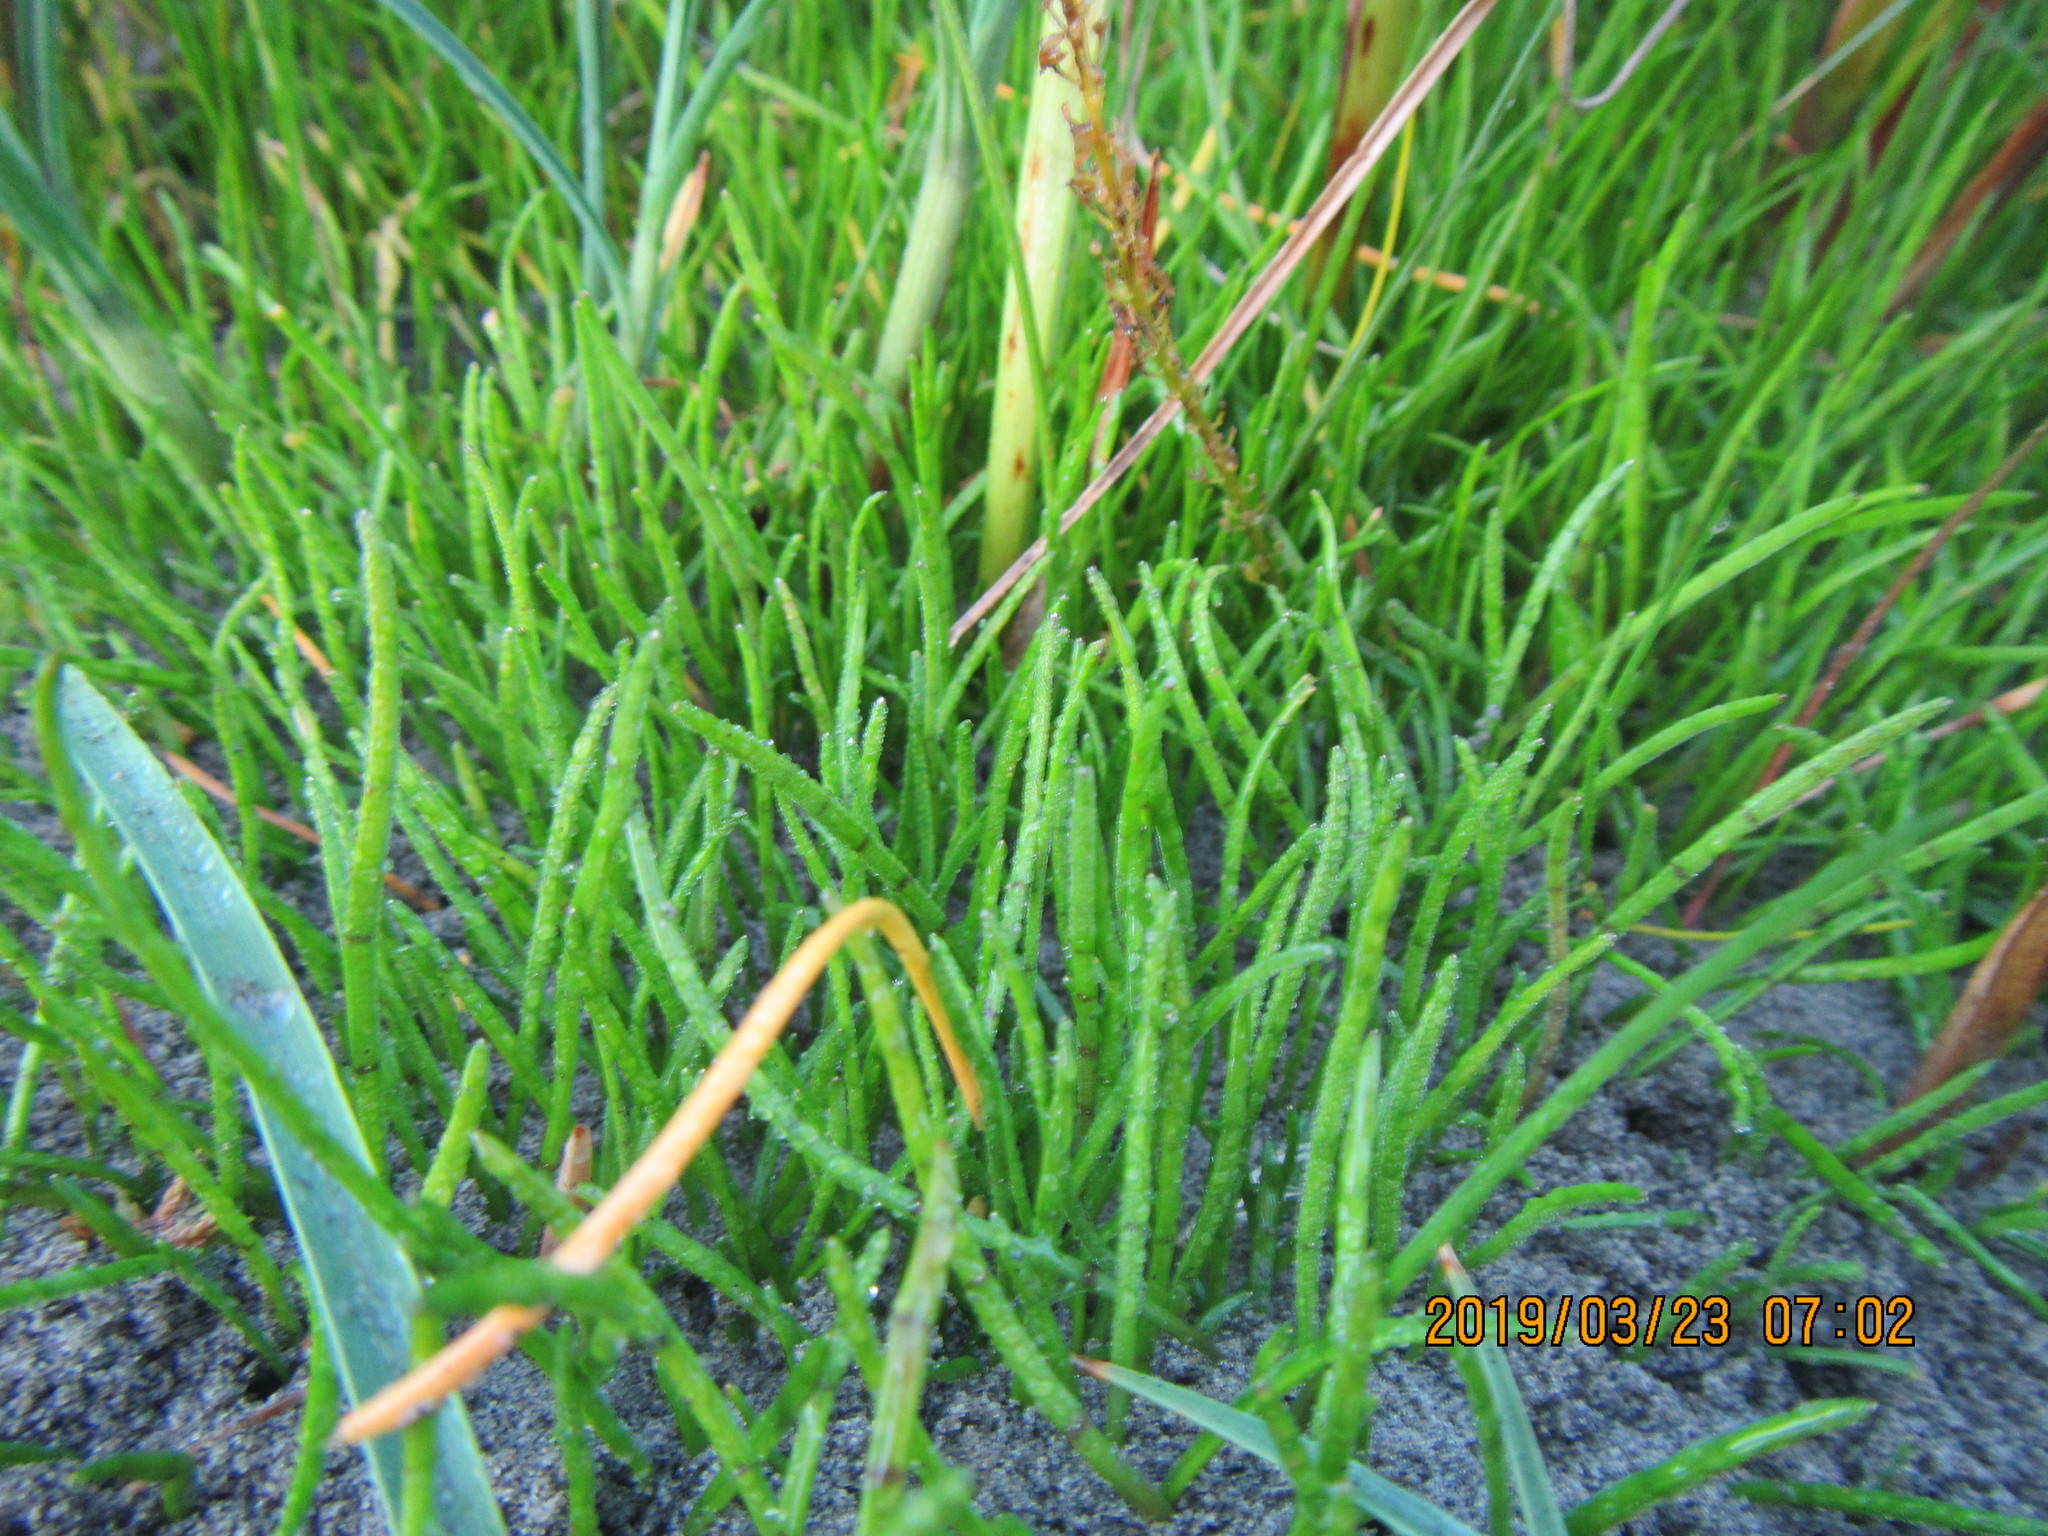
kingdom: Plantae
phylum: Tracheophyta
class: Magnoliopsida
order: Apiales
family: Apiaceae
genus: Lilaeopsis
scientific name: Lilaeopsis novae-zelandiae
